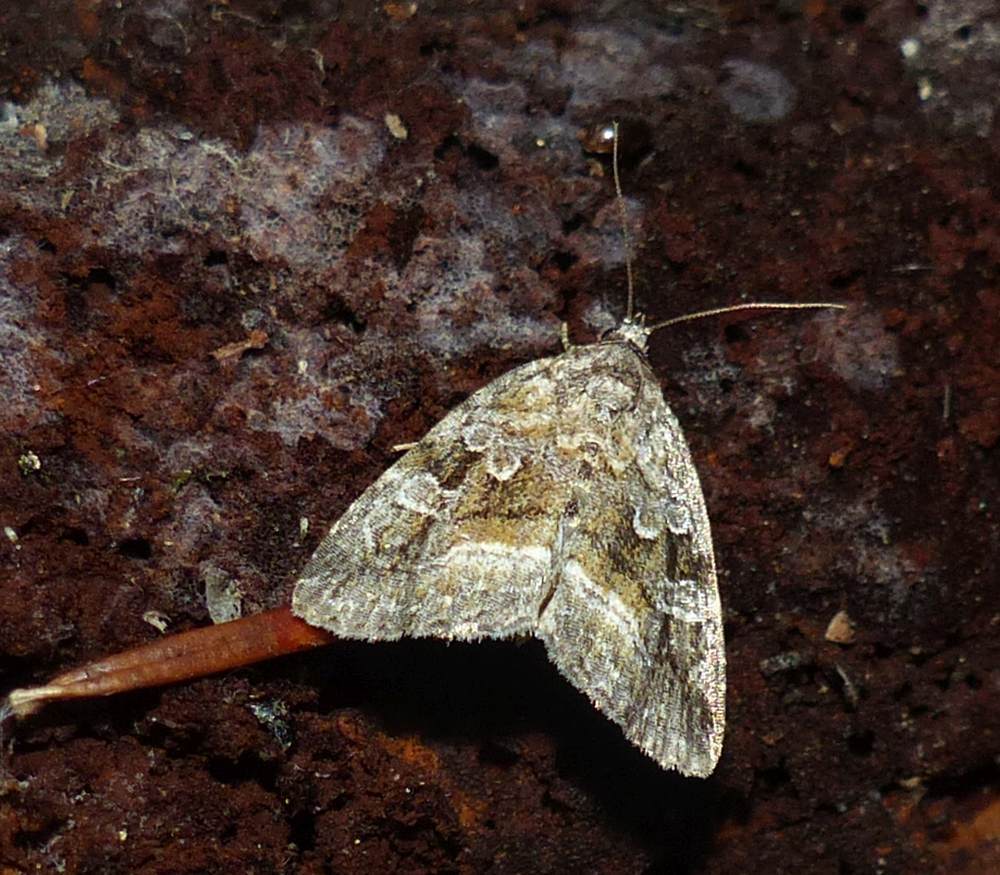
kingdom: Animalia
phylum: Arthropoda
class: Insecta
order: Lepidoptera
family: Noctuidae
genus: Protodeltote
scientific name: Protodeltote muscosula
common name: Large mossy glyph
